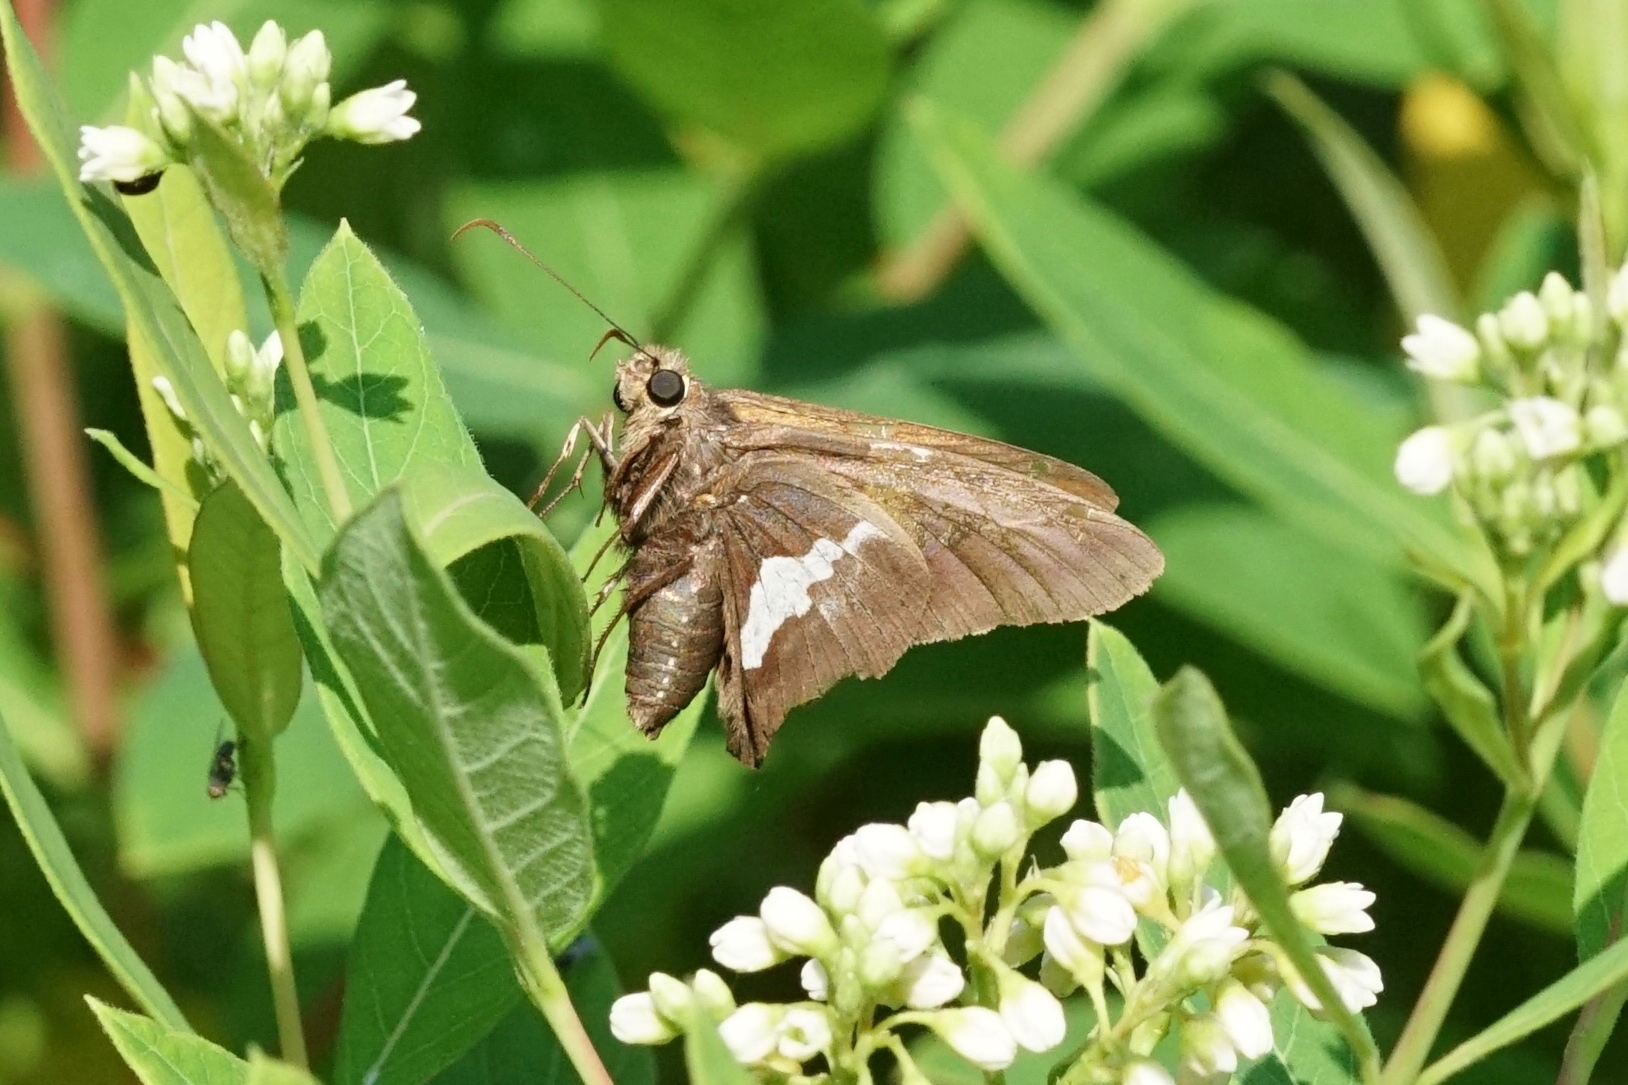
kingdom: Animalia
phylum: Arthropoda
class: Insecta
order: Lepidoptera
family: Hesperiidae
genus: Epargyreus
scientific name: Epargyreus clarus
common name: Silver-spotted skipper
